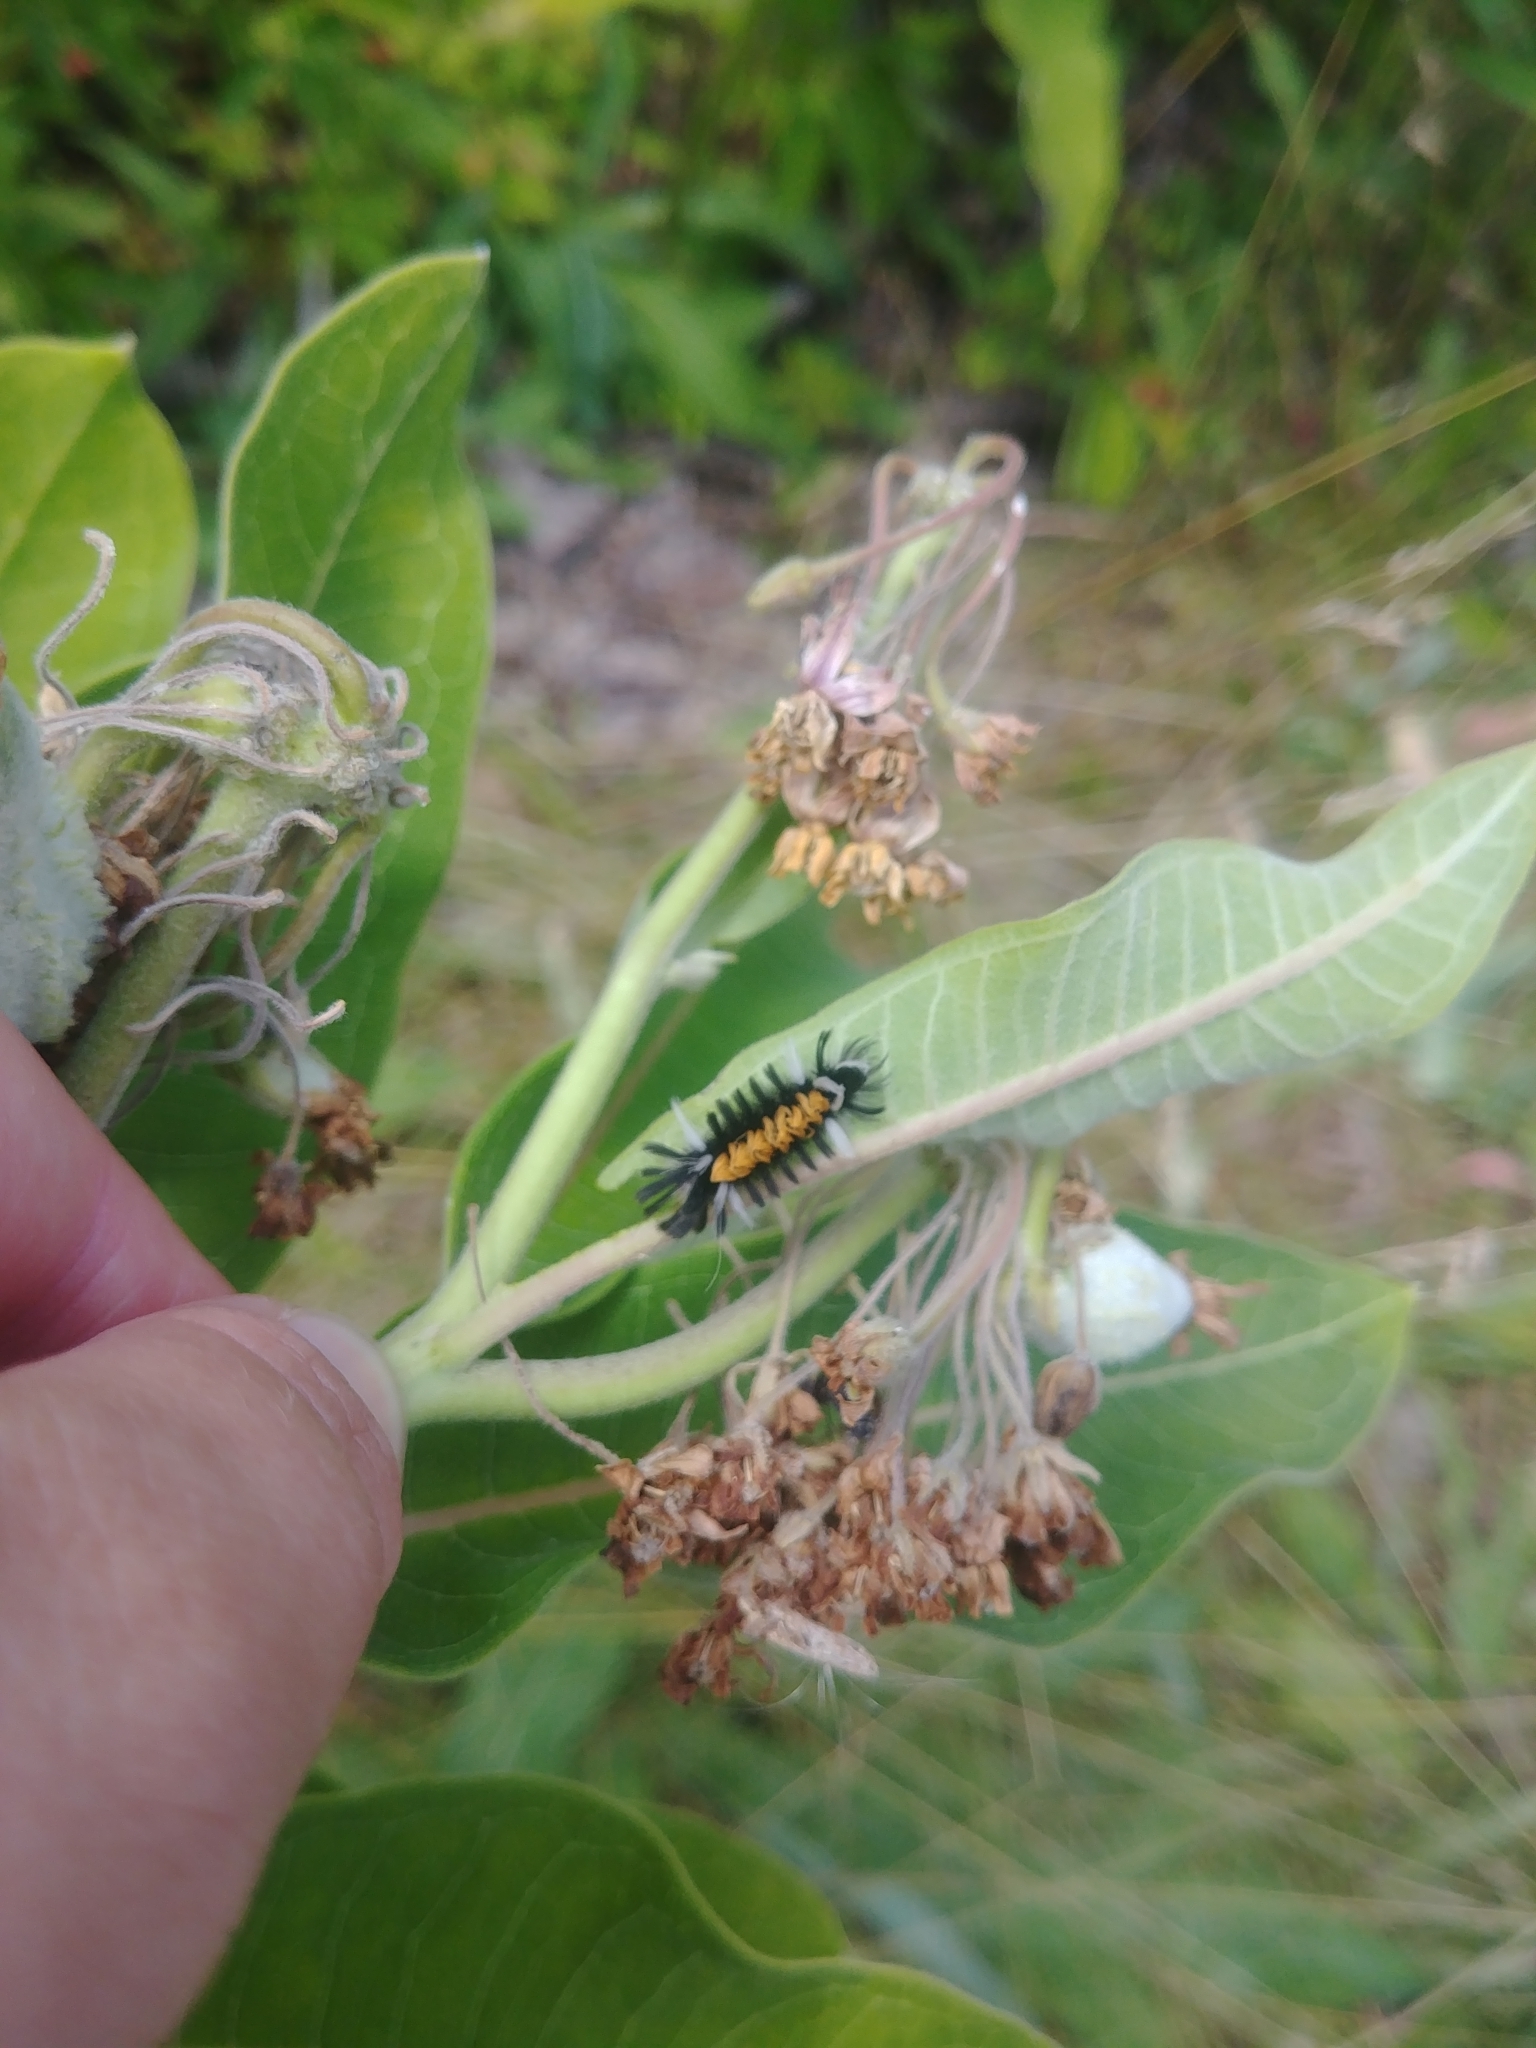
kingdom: Animalia
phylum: Arthropoda
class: Insecta
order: Lepidoptera
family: Erebidae
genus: Euchaetes
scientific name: Euchaetes egle
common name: Milkweed tussock moth
